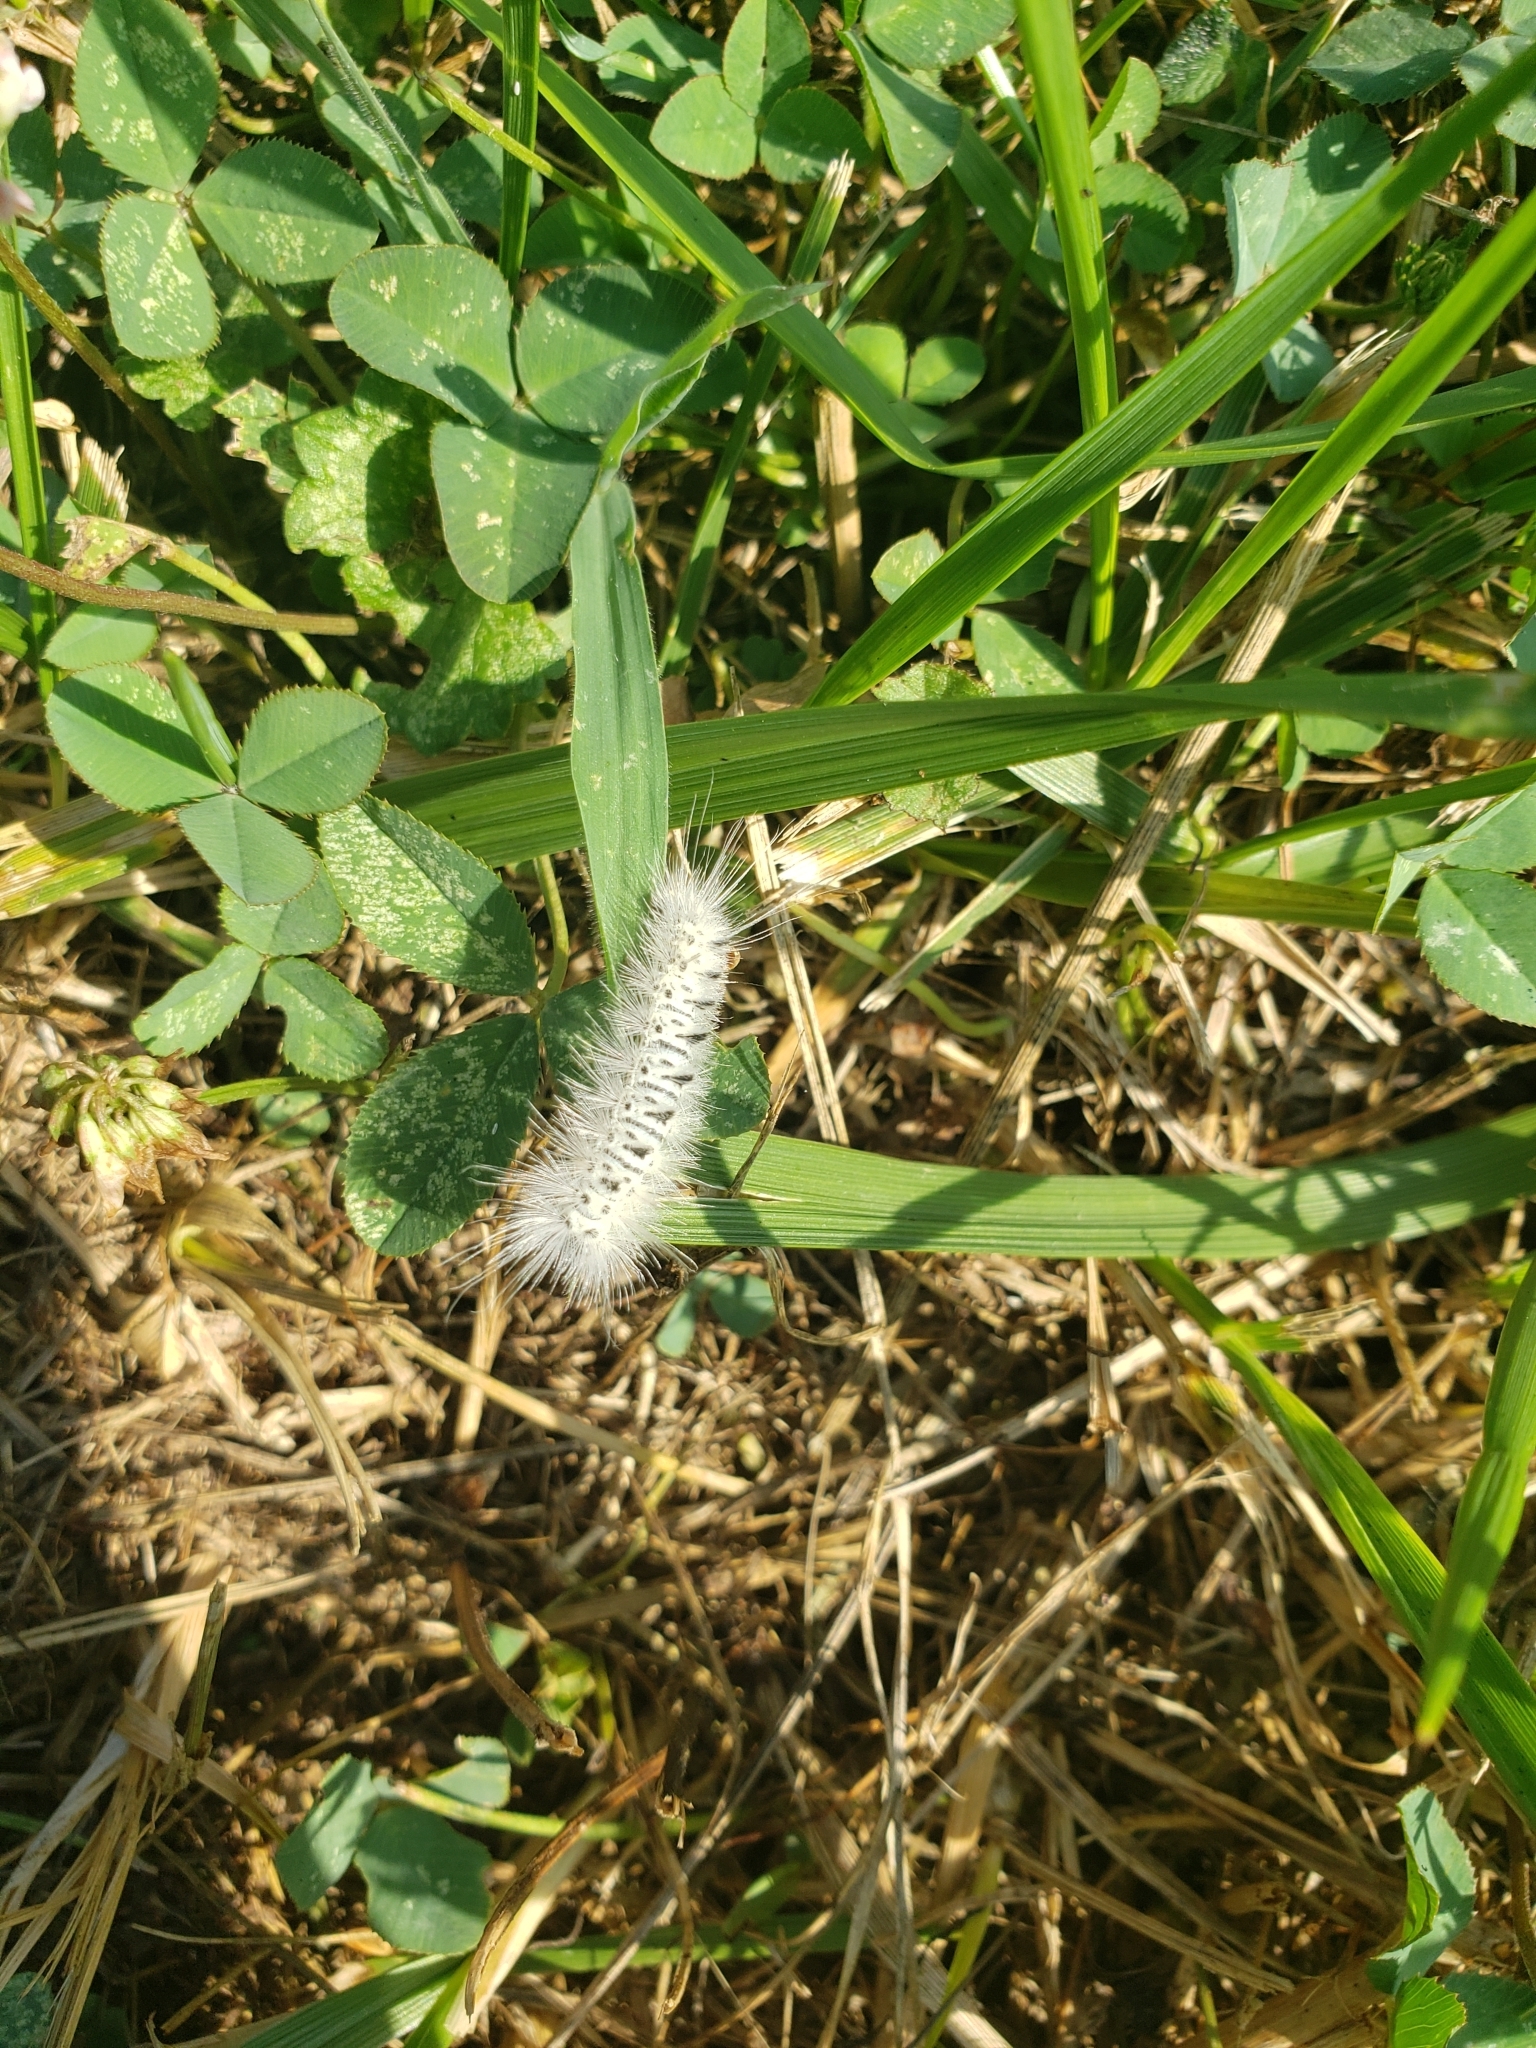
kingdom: Animalia
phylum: Arthropoda
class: Insecta
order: Lepidoptera
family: Erebidae
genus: Lophocampa
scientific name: Lophocampa caryae
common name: Hickory tussock moth
